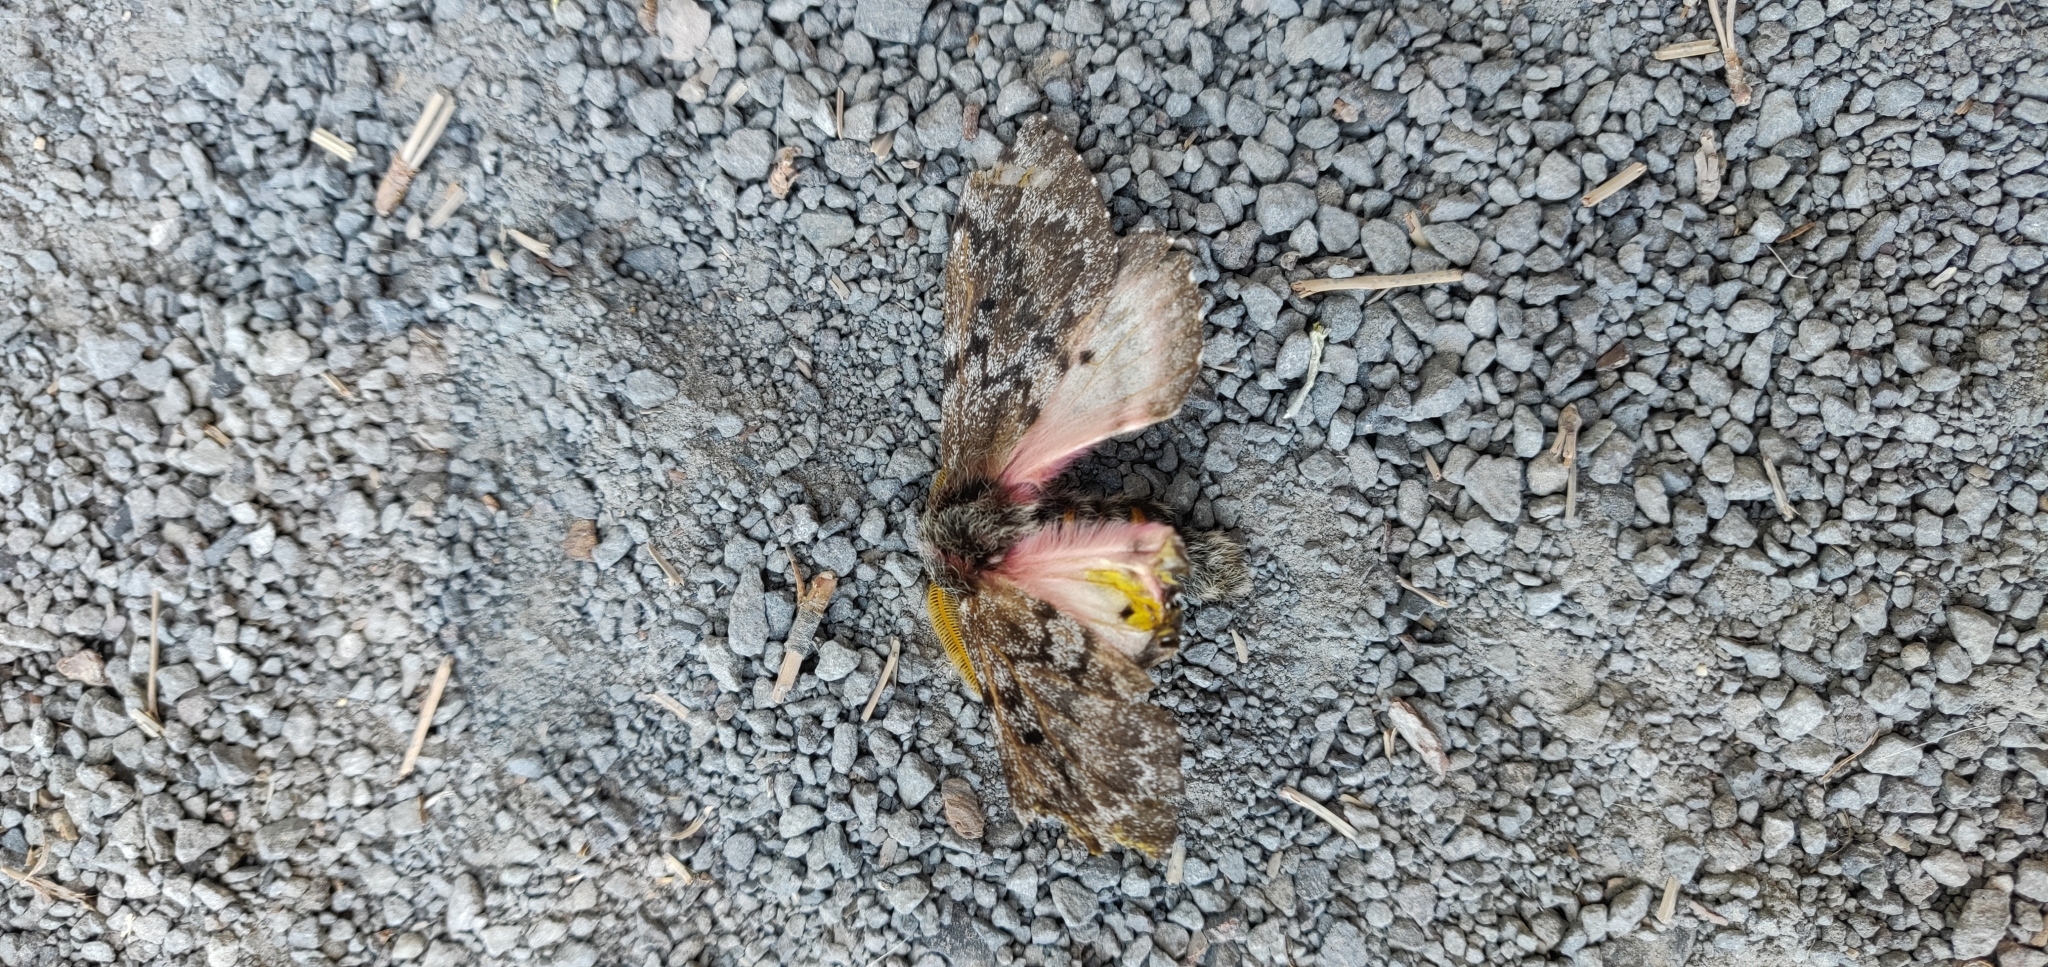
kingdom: Animalia
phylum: Arthropoda
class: Insecta
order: Lepidoptera
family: Saturniidae
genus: Coloradia
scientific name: Coloradia pandora
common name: Pandora pinemoth
